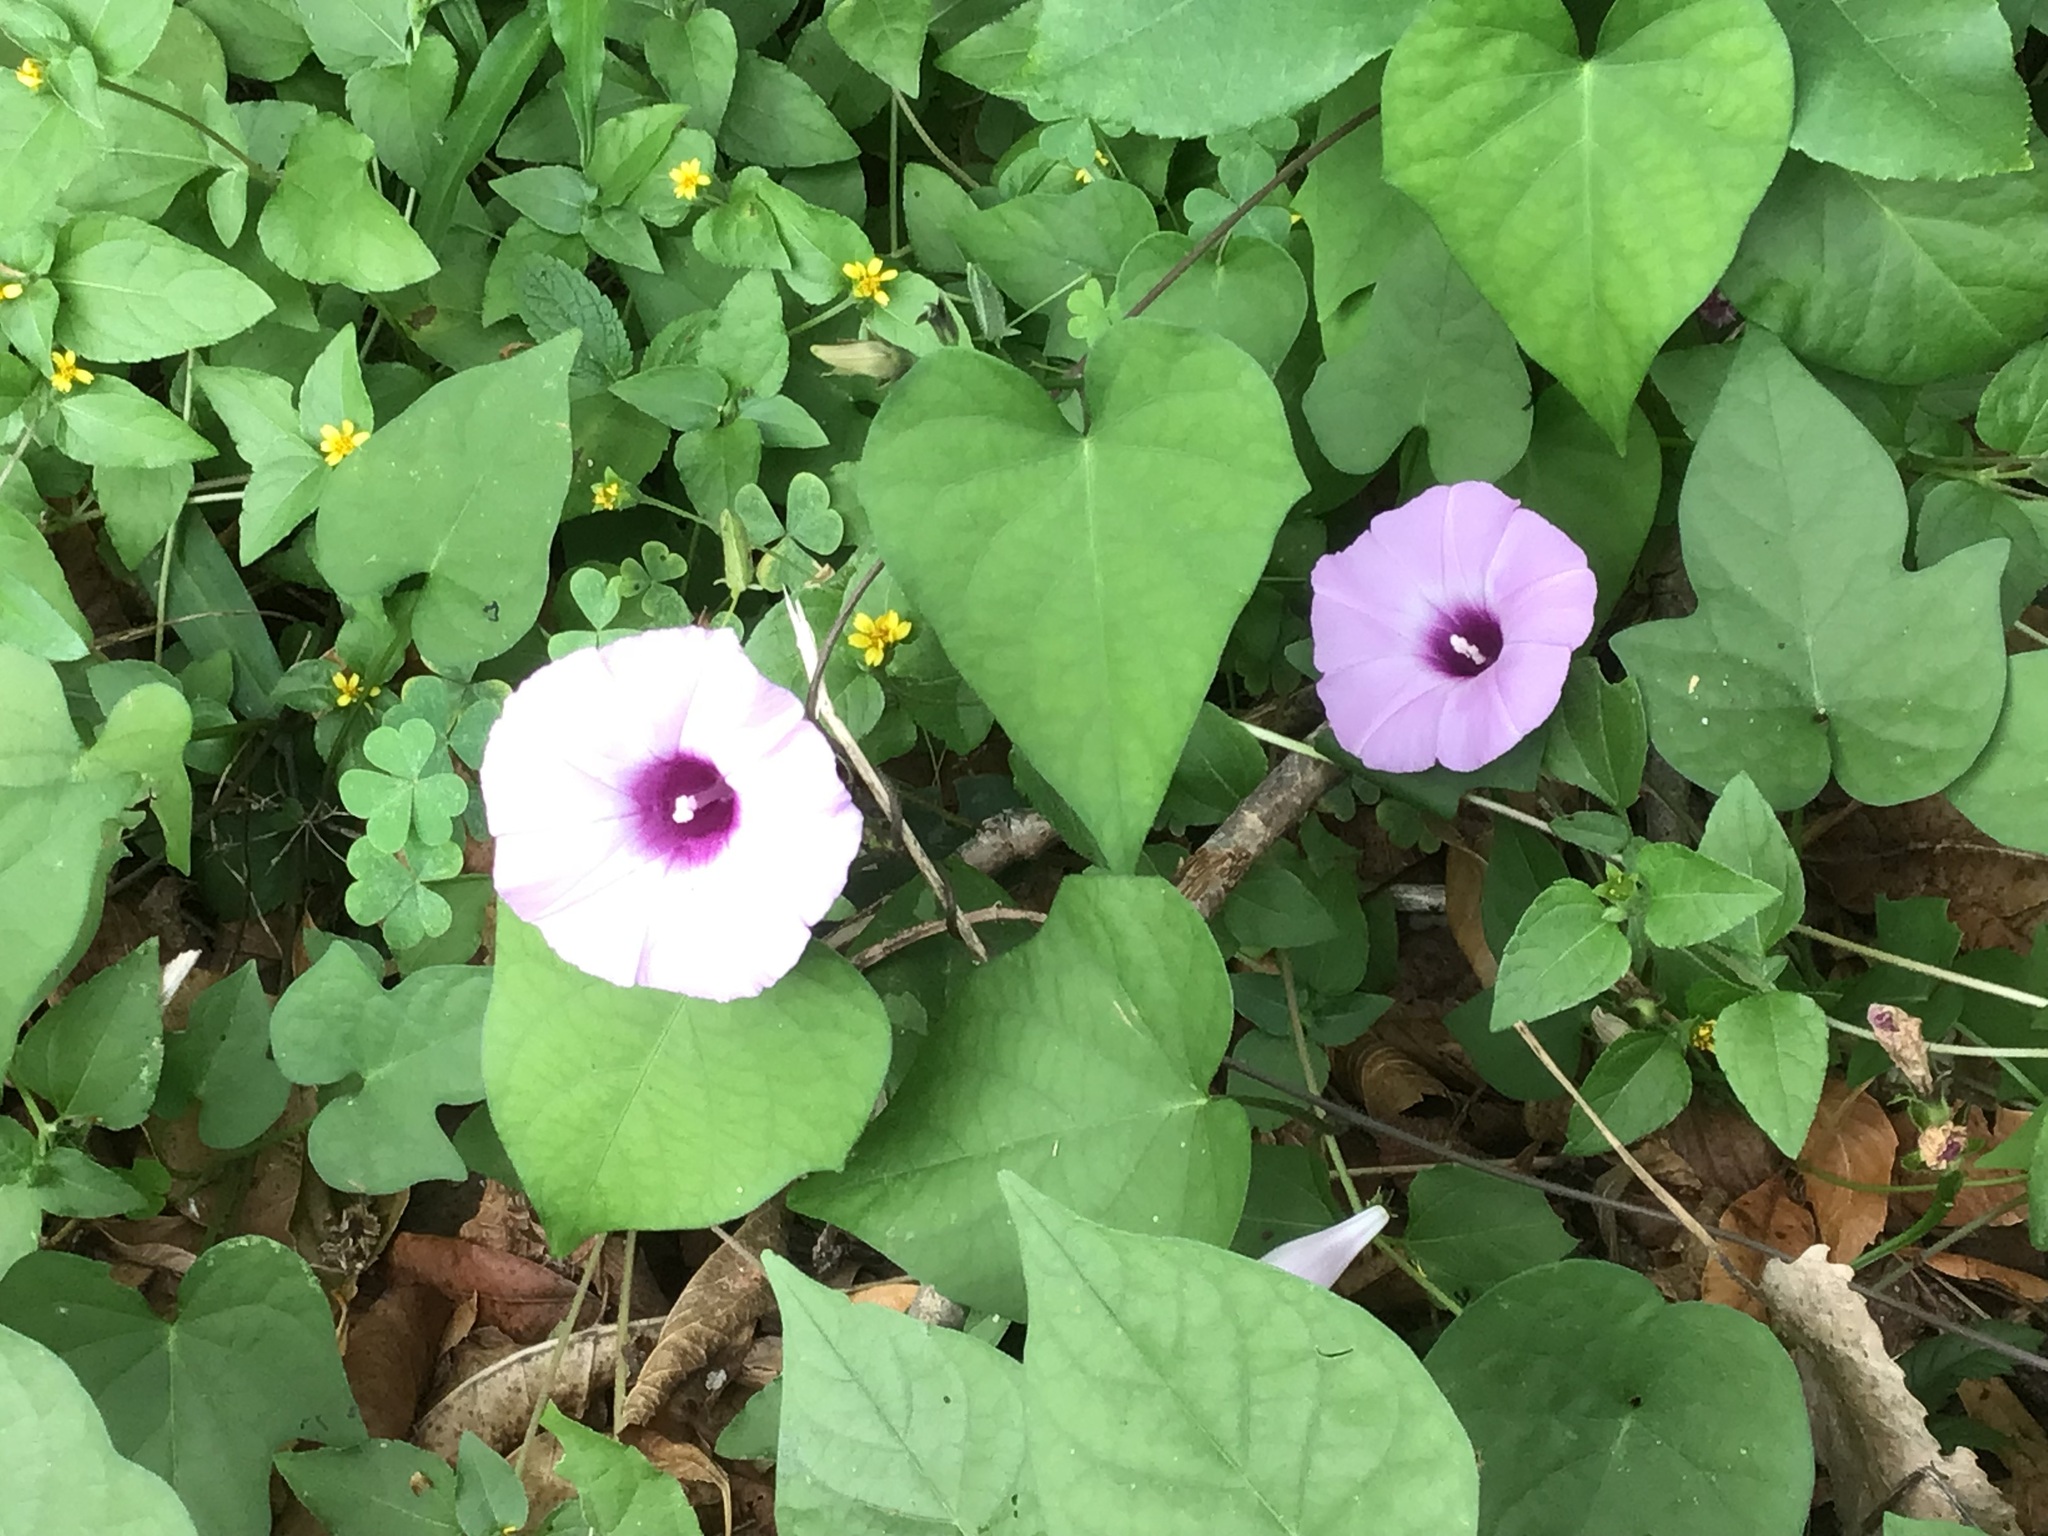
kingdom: Plantae
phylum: Tracheophyta
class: Magnoliopsida
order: Solanales
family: Convolvulaceae
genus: Ipomoea
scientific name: Ipomoea cordatotriloba
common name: Cotton morning glory
